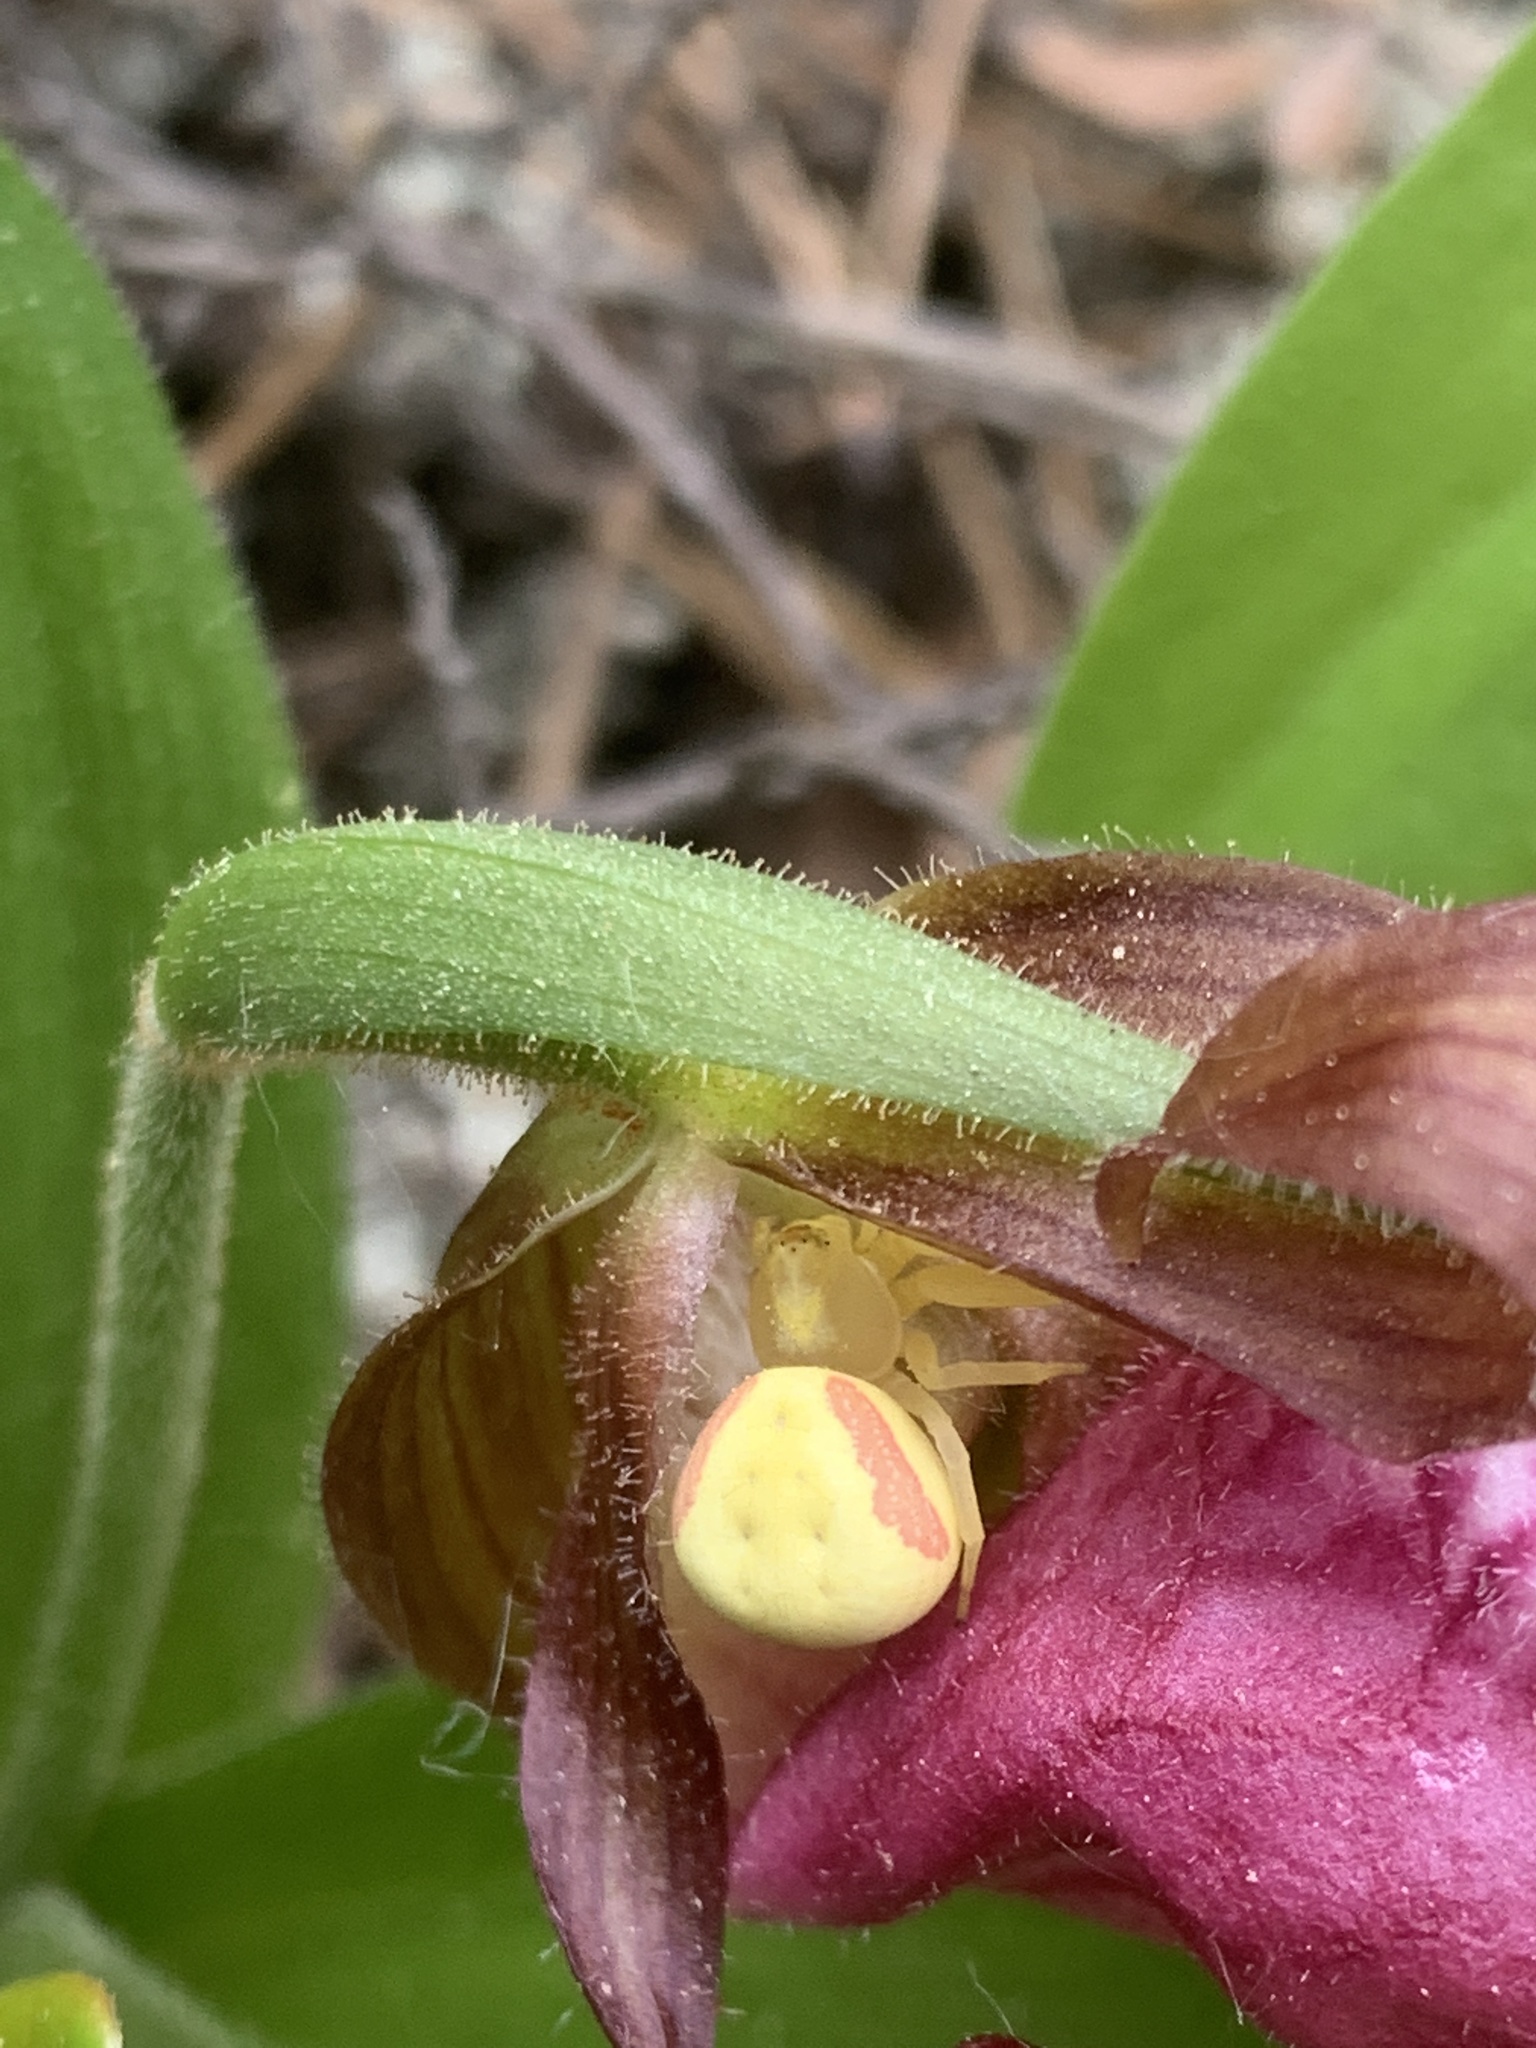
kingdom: Animalia
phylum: Arthropoda
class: Arachnida
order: Araneae
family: Thomisidae
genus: Misumena
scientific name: Misumena vatia
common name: Goldenrod crab spider
